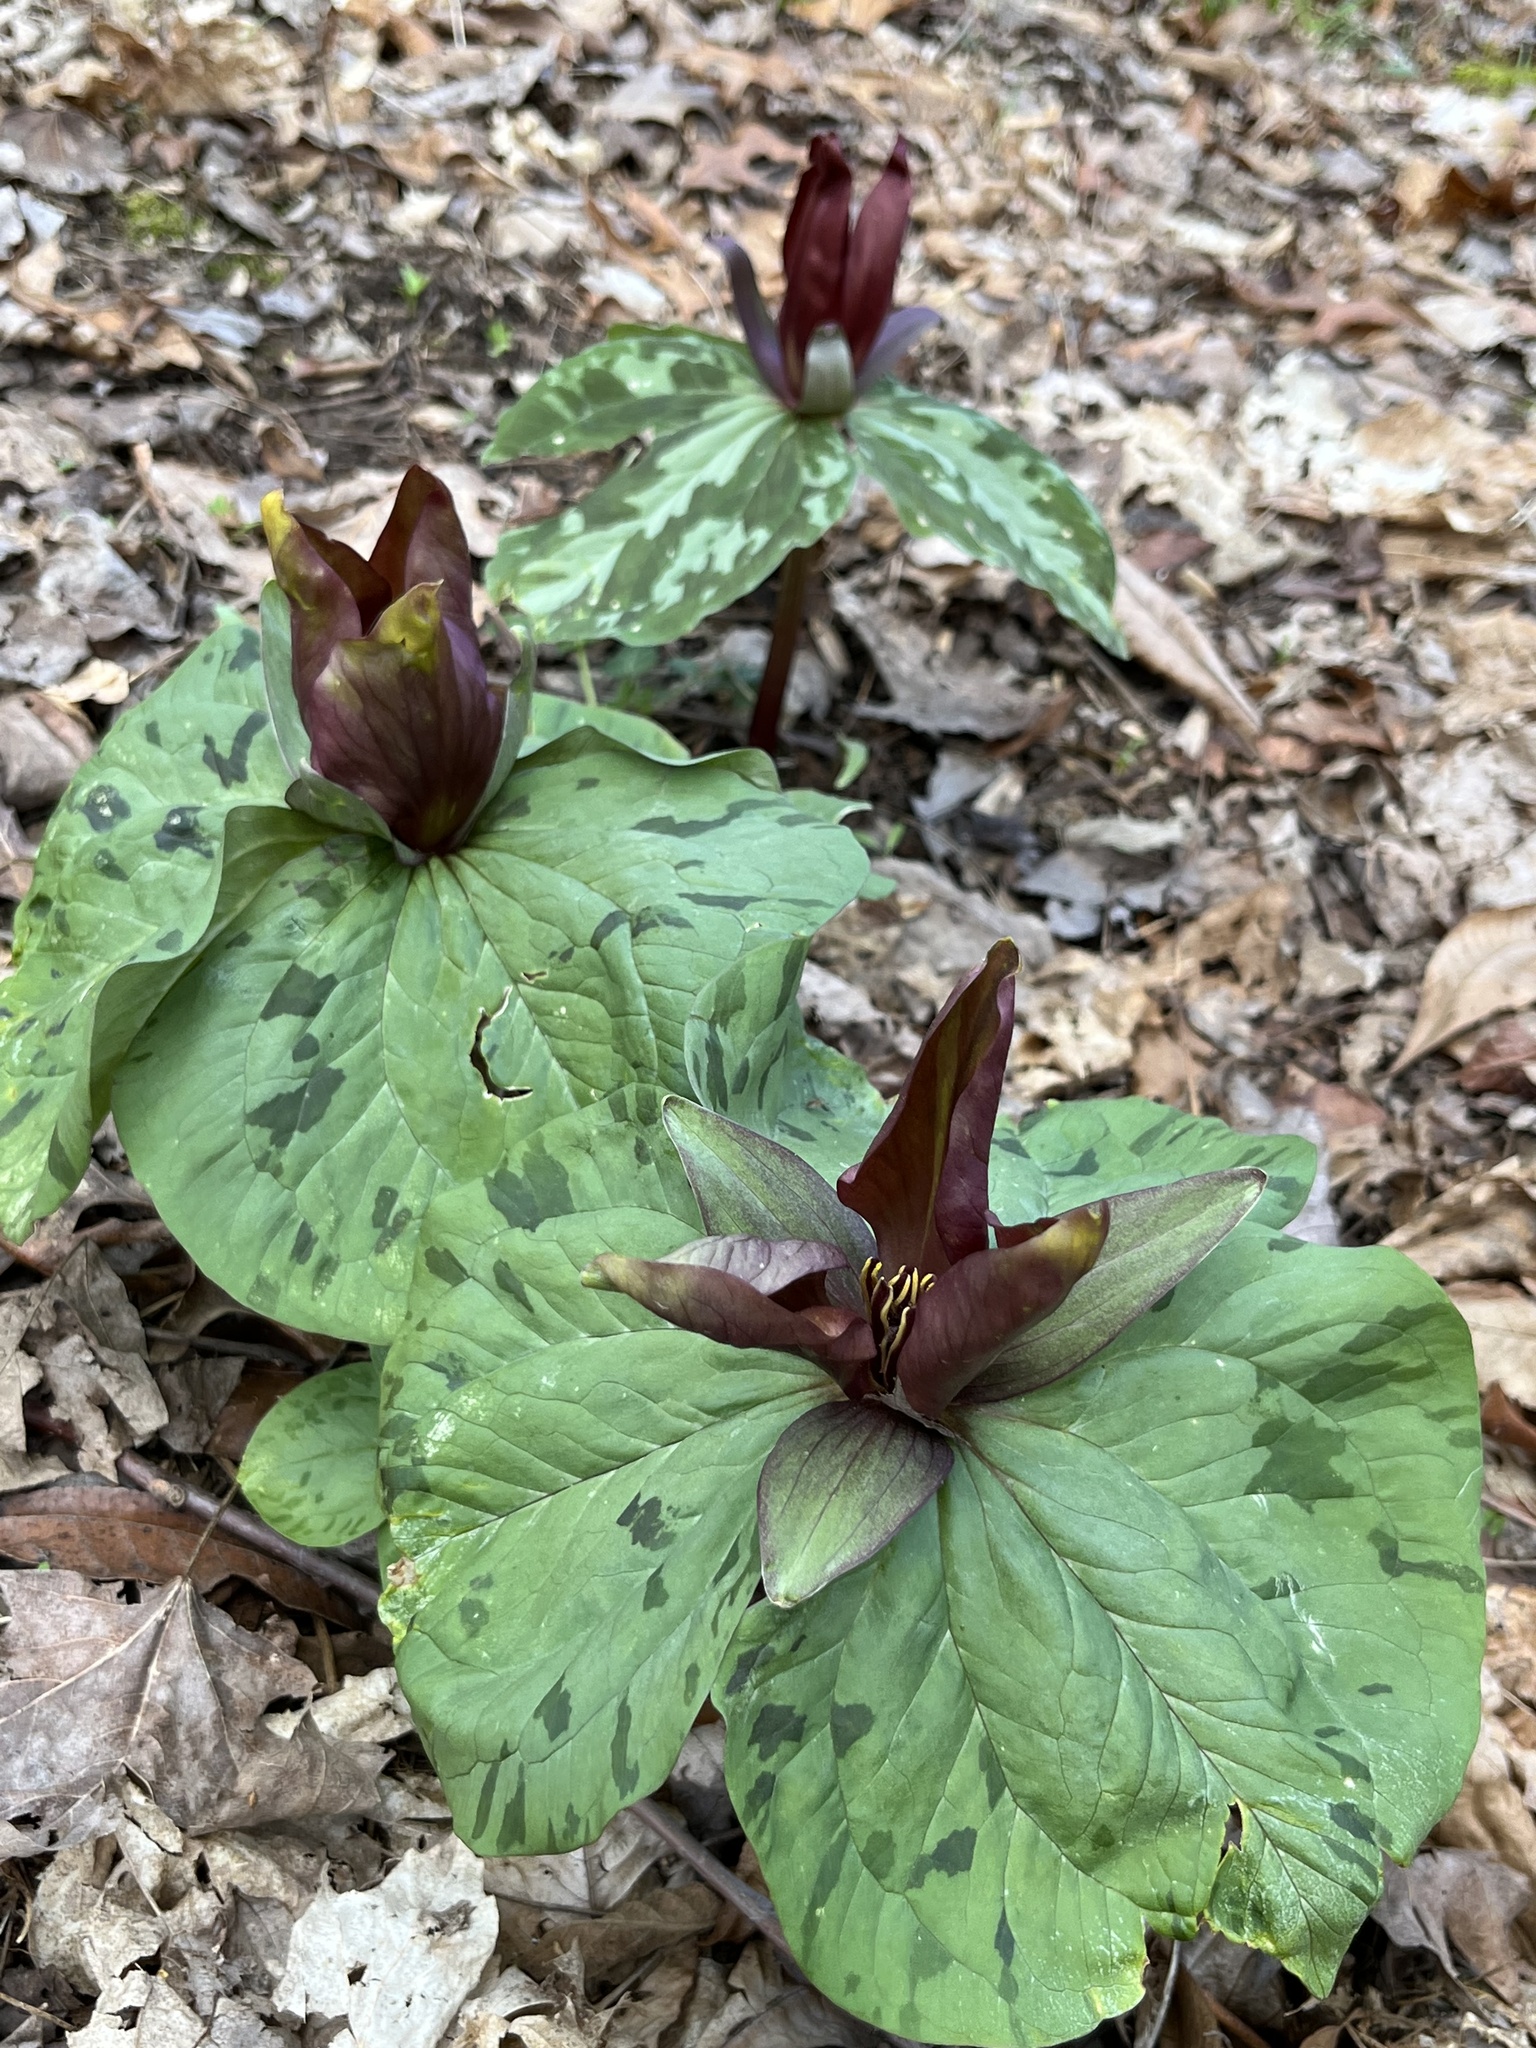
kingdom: Plantae
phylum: Tracheophyta
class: Liliopsida
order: Liliales
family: Melanthiaceae
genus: Trillium
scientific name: Trillium cuneatum
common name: Cuneate trillium
